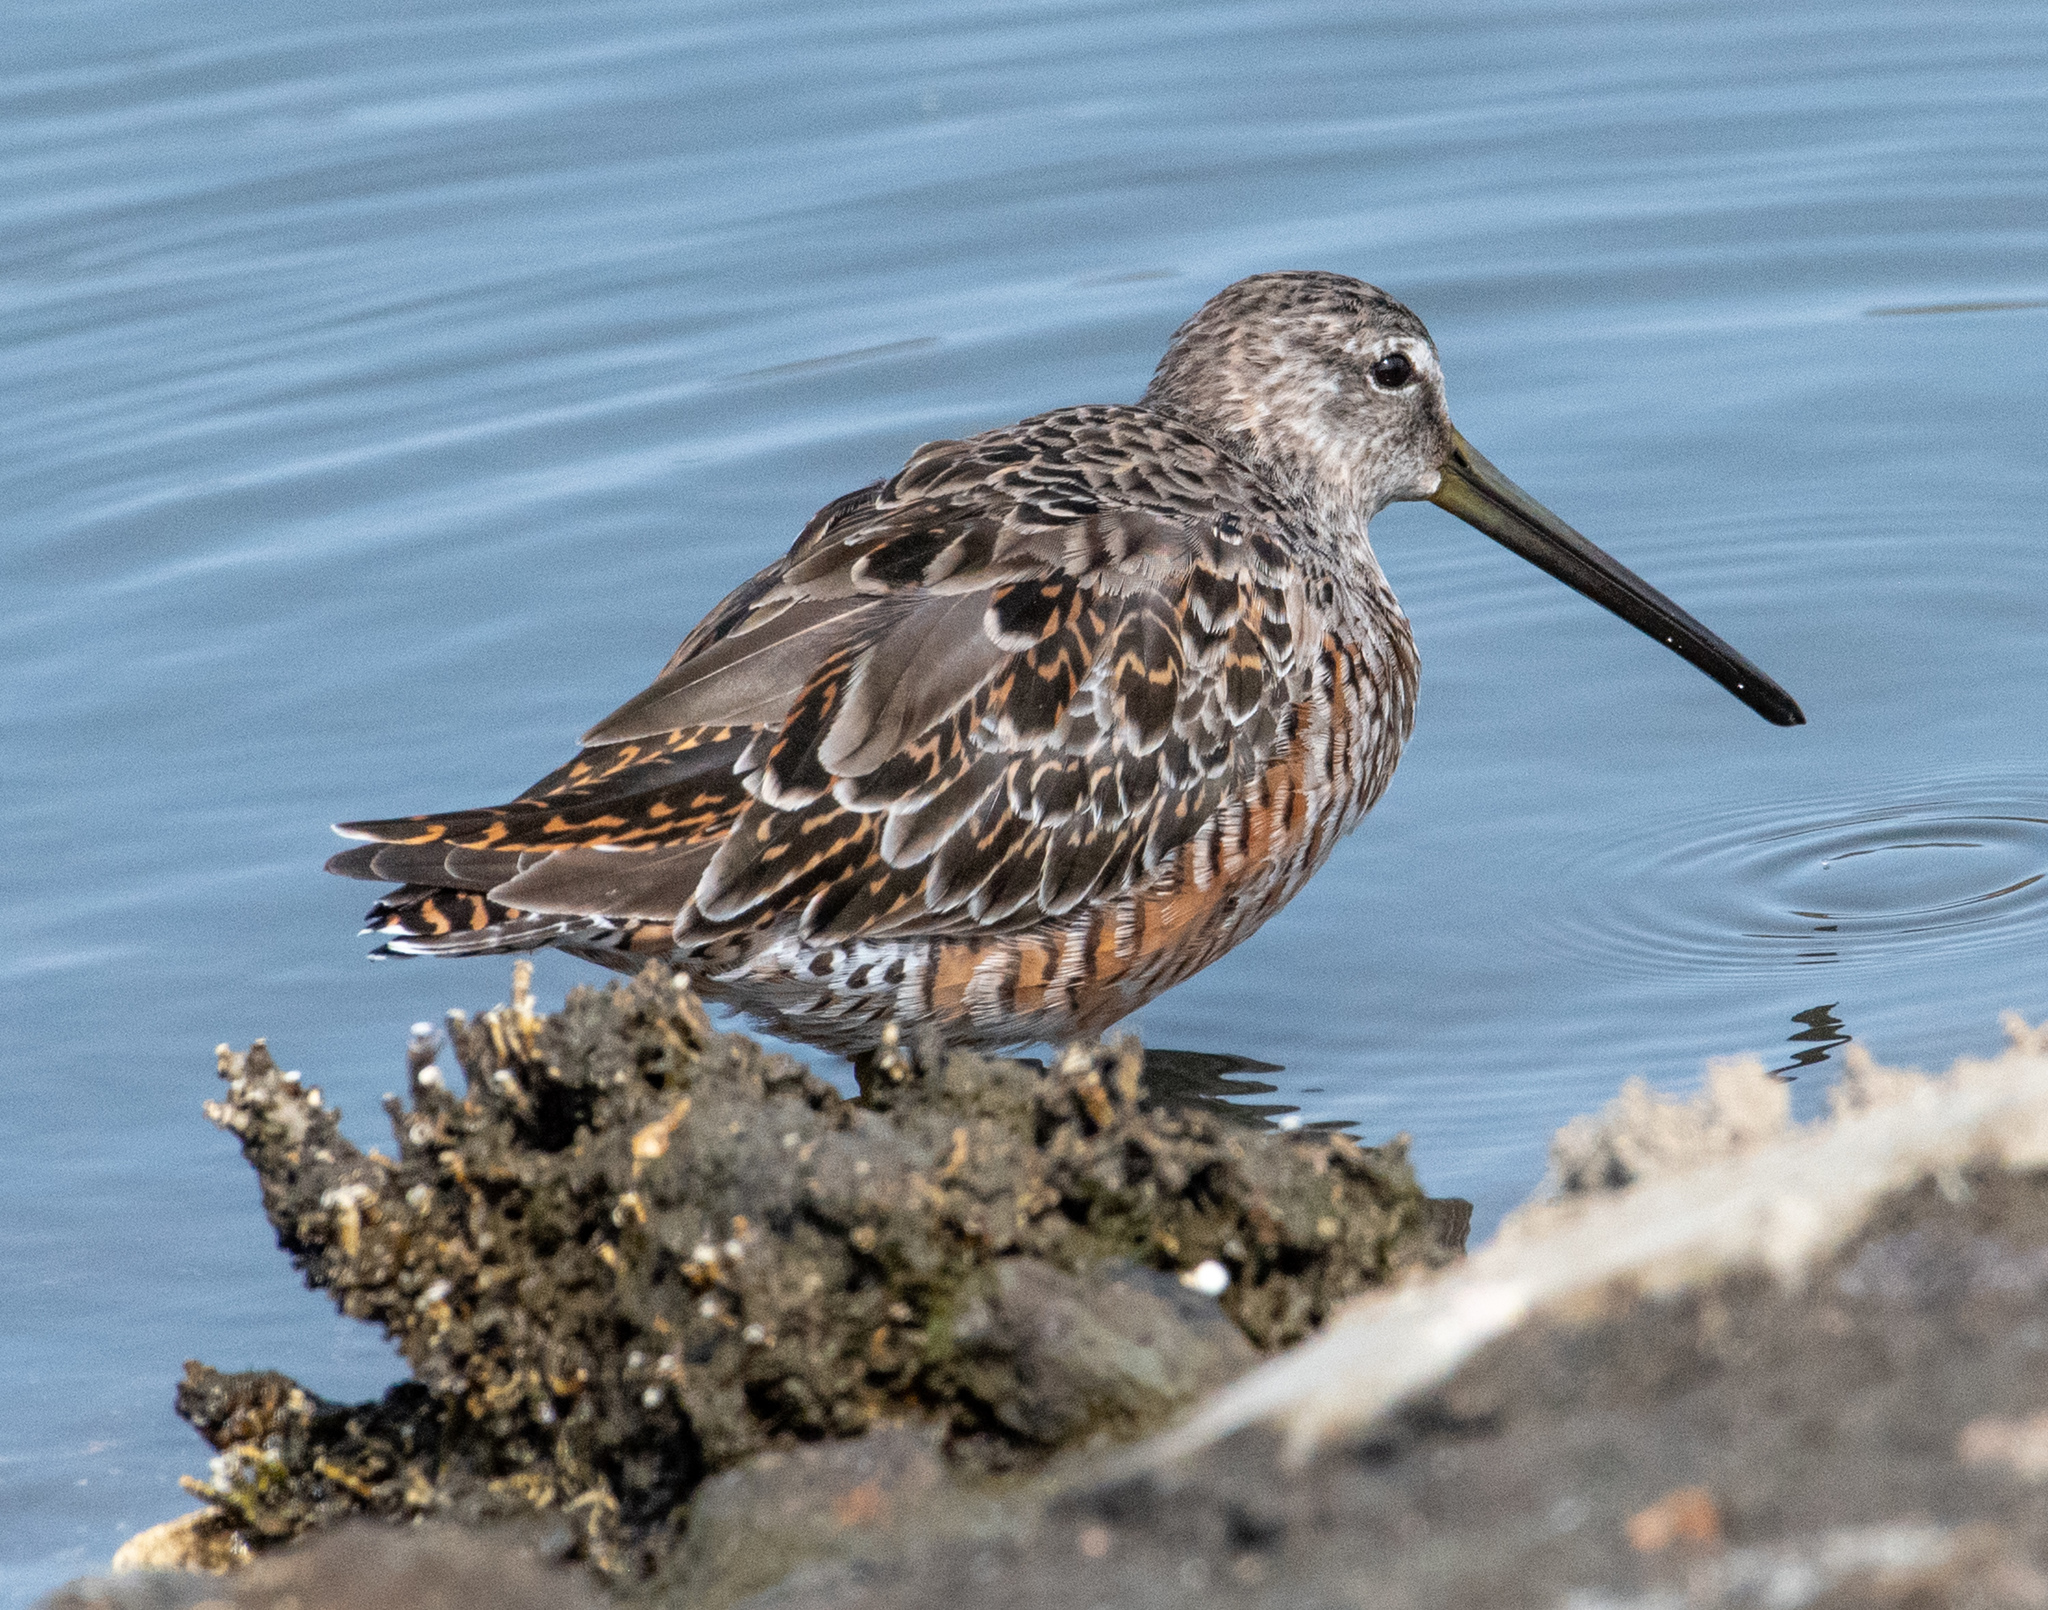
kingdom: Animalia
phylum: Chordata
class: Aves
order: Charadriiformes
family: Scolopacidae
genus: Limnodromus
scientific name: Limnodromus griseus
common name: Short-billed dowitcher
